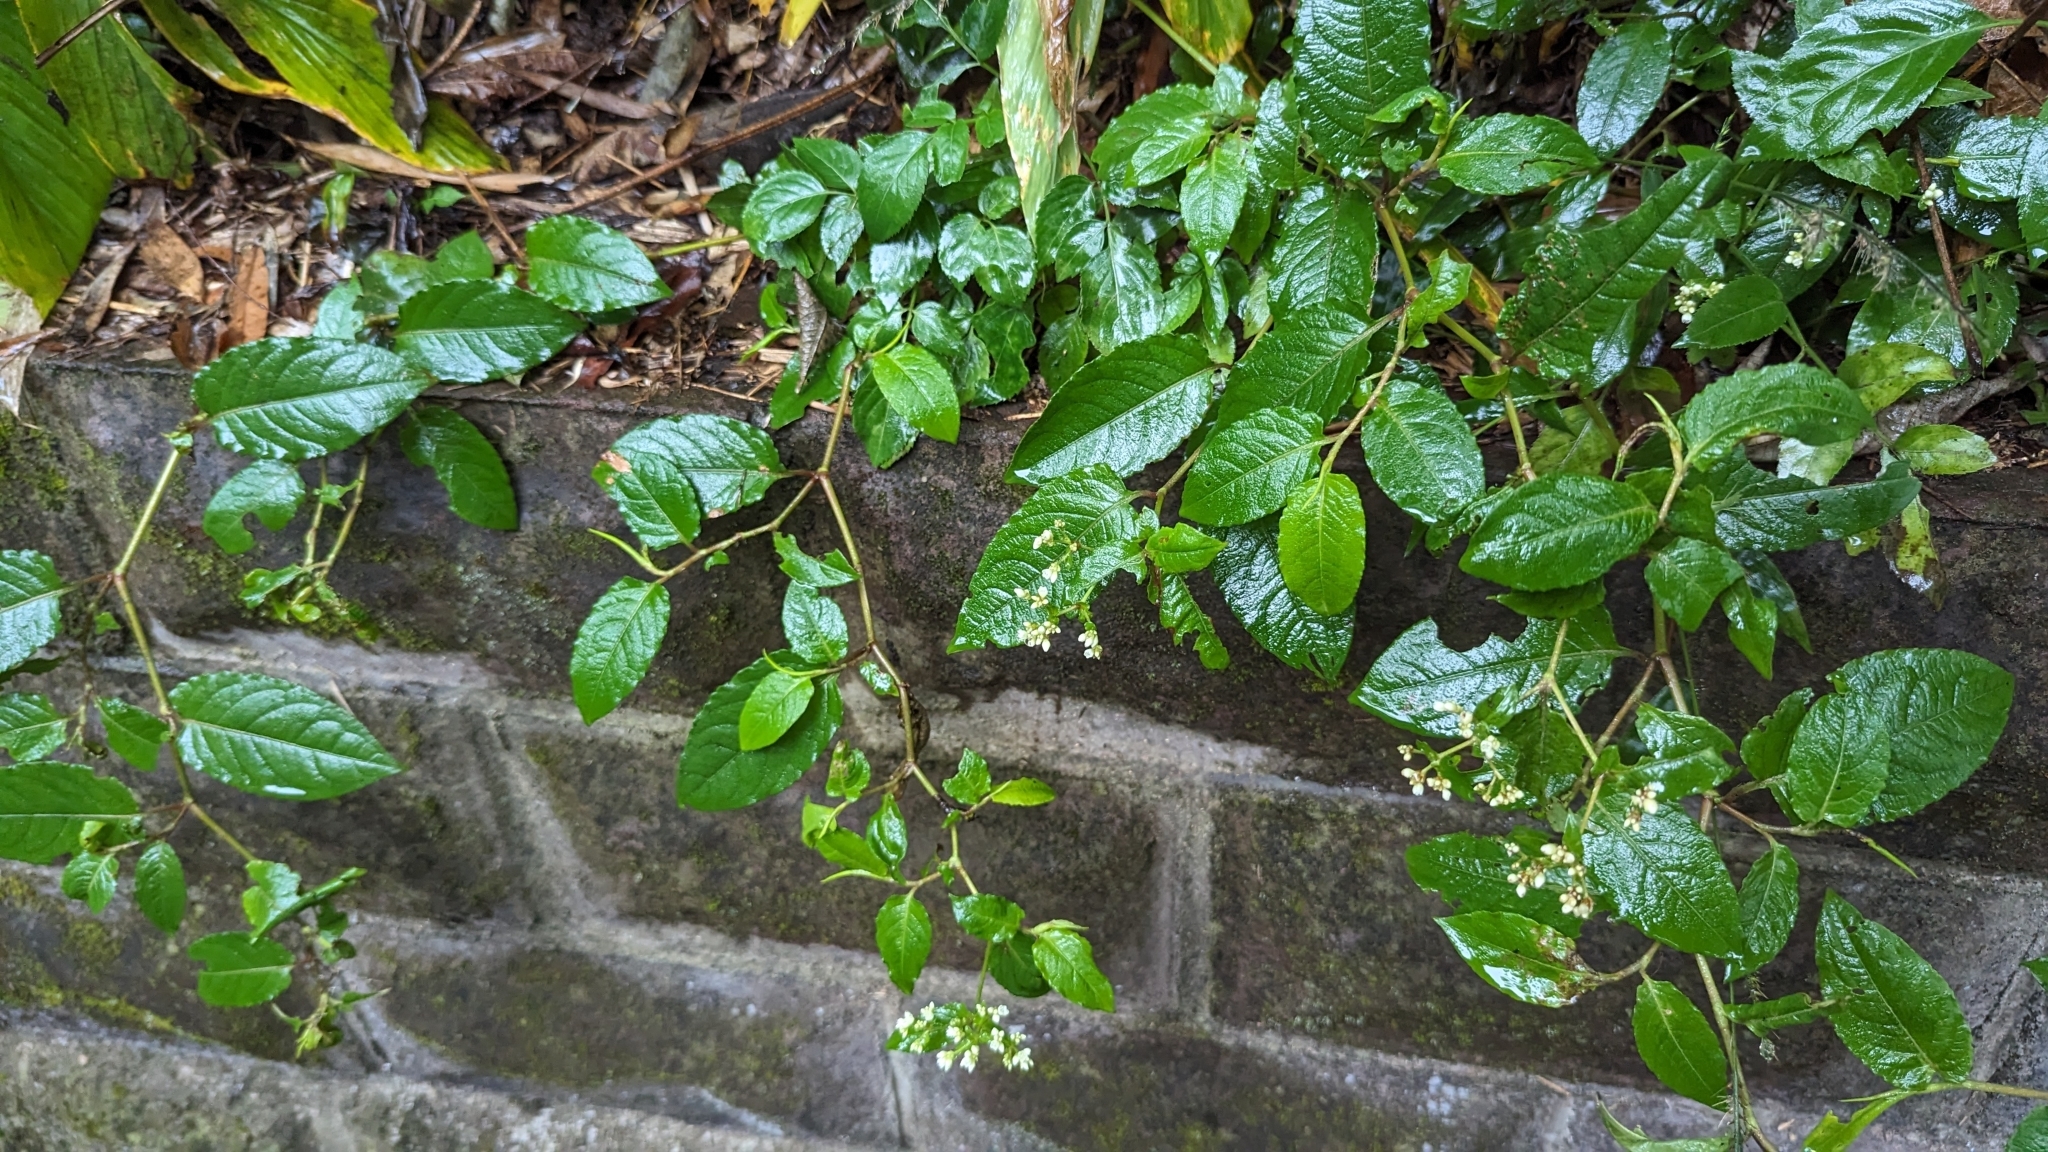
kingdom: Plantae
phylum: Tracheophyta
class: Magnoliopsida
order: Caryophyllales
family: Polygonaceae
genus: Persicaria
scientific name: Persicaria chinensis
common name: Chinese knotweed
